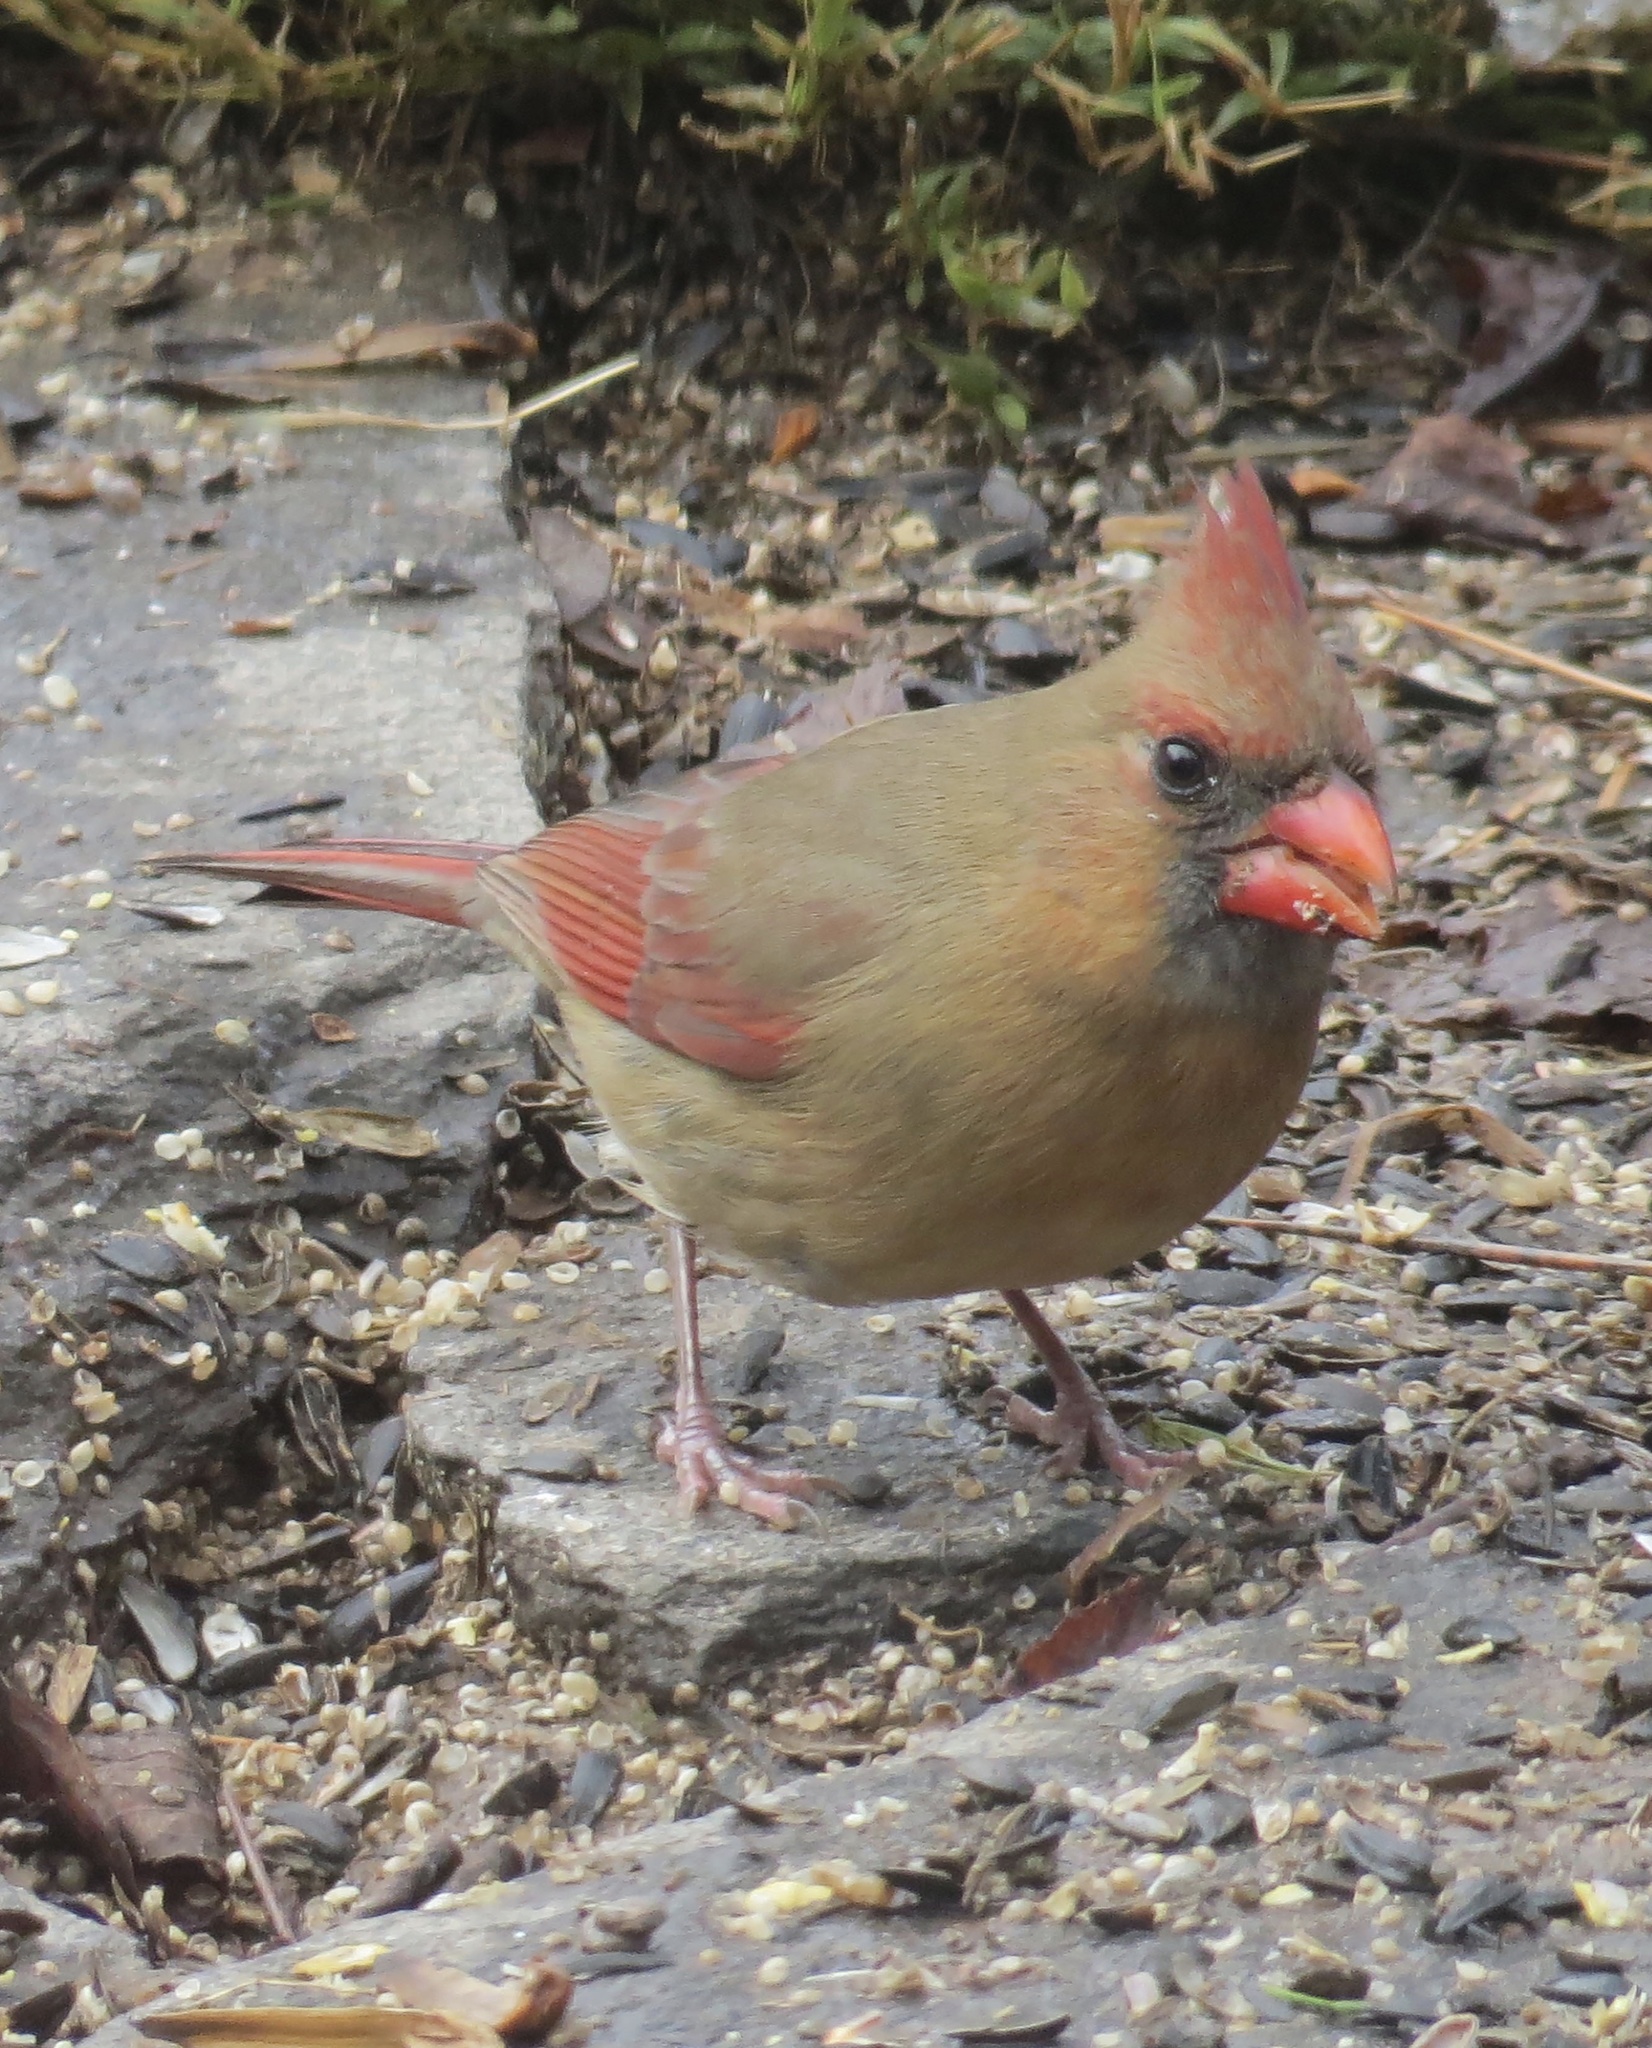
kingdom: Animalia
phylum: Chordata
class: Aves
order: Passeriformes
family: Cardinalidae
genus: Cardinalis
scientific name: Cardinalis cardinalis
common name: Northern cardinal
